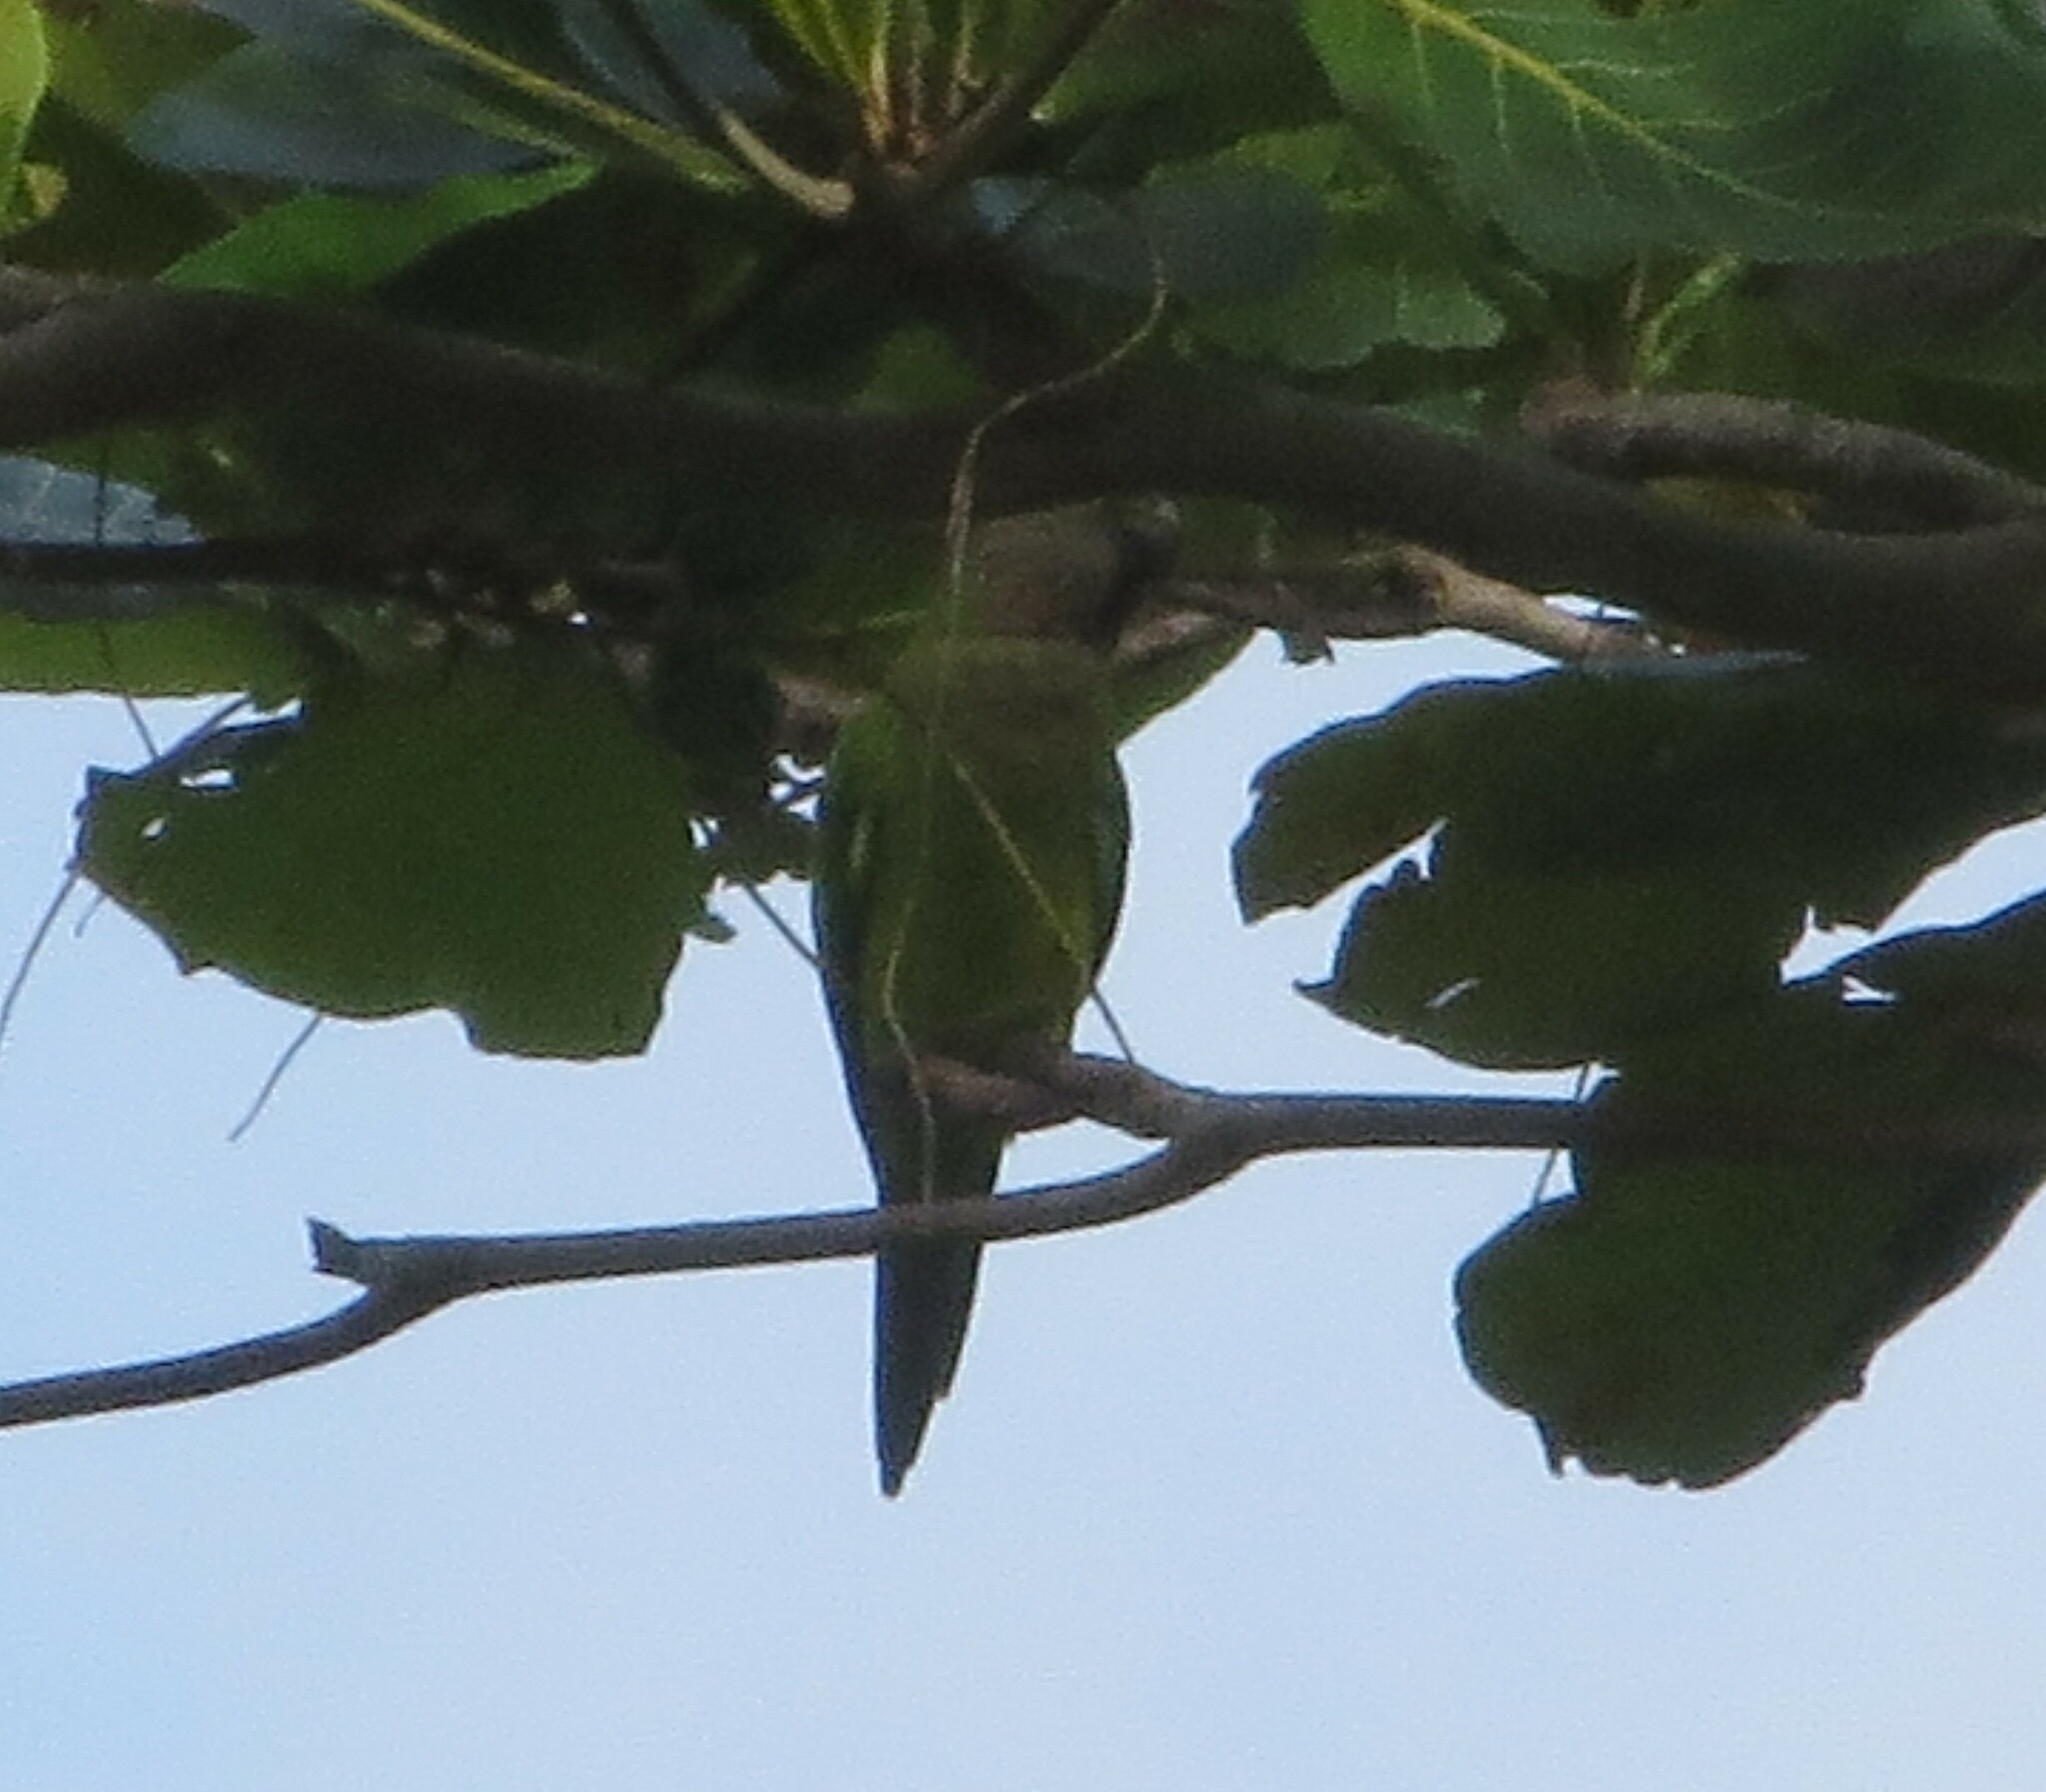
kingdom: Animalia
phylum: Chordata
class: Aves
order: Psittaciformes
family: Psittacidae
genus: Aratinga
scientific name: Aratinga pertinax
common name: Brown-throated parakeet
